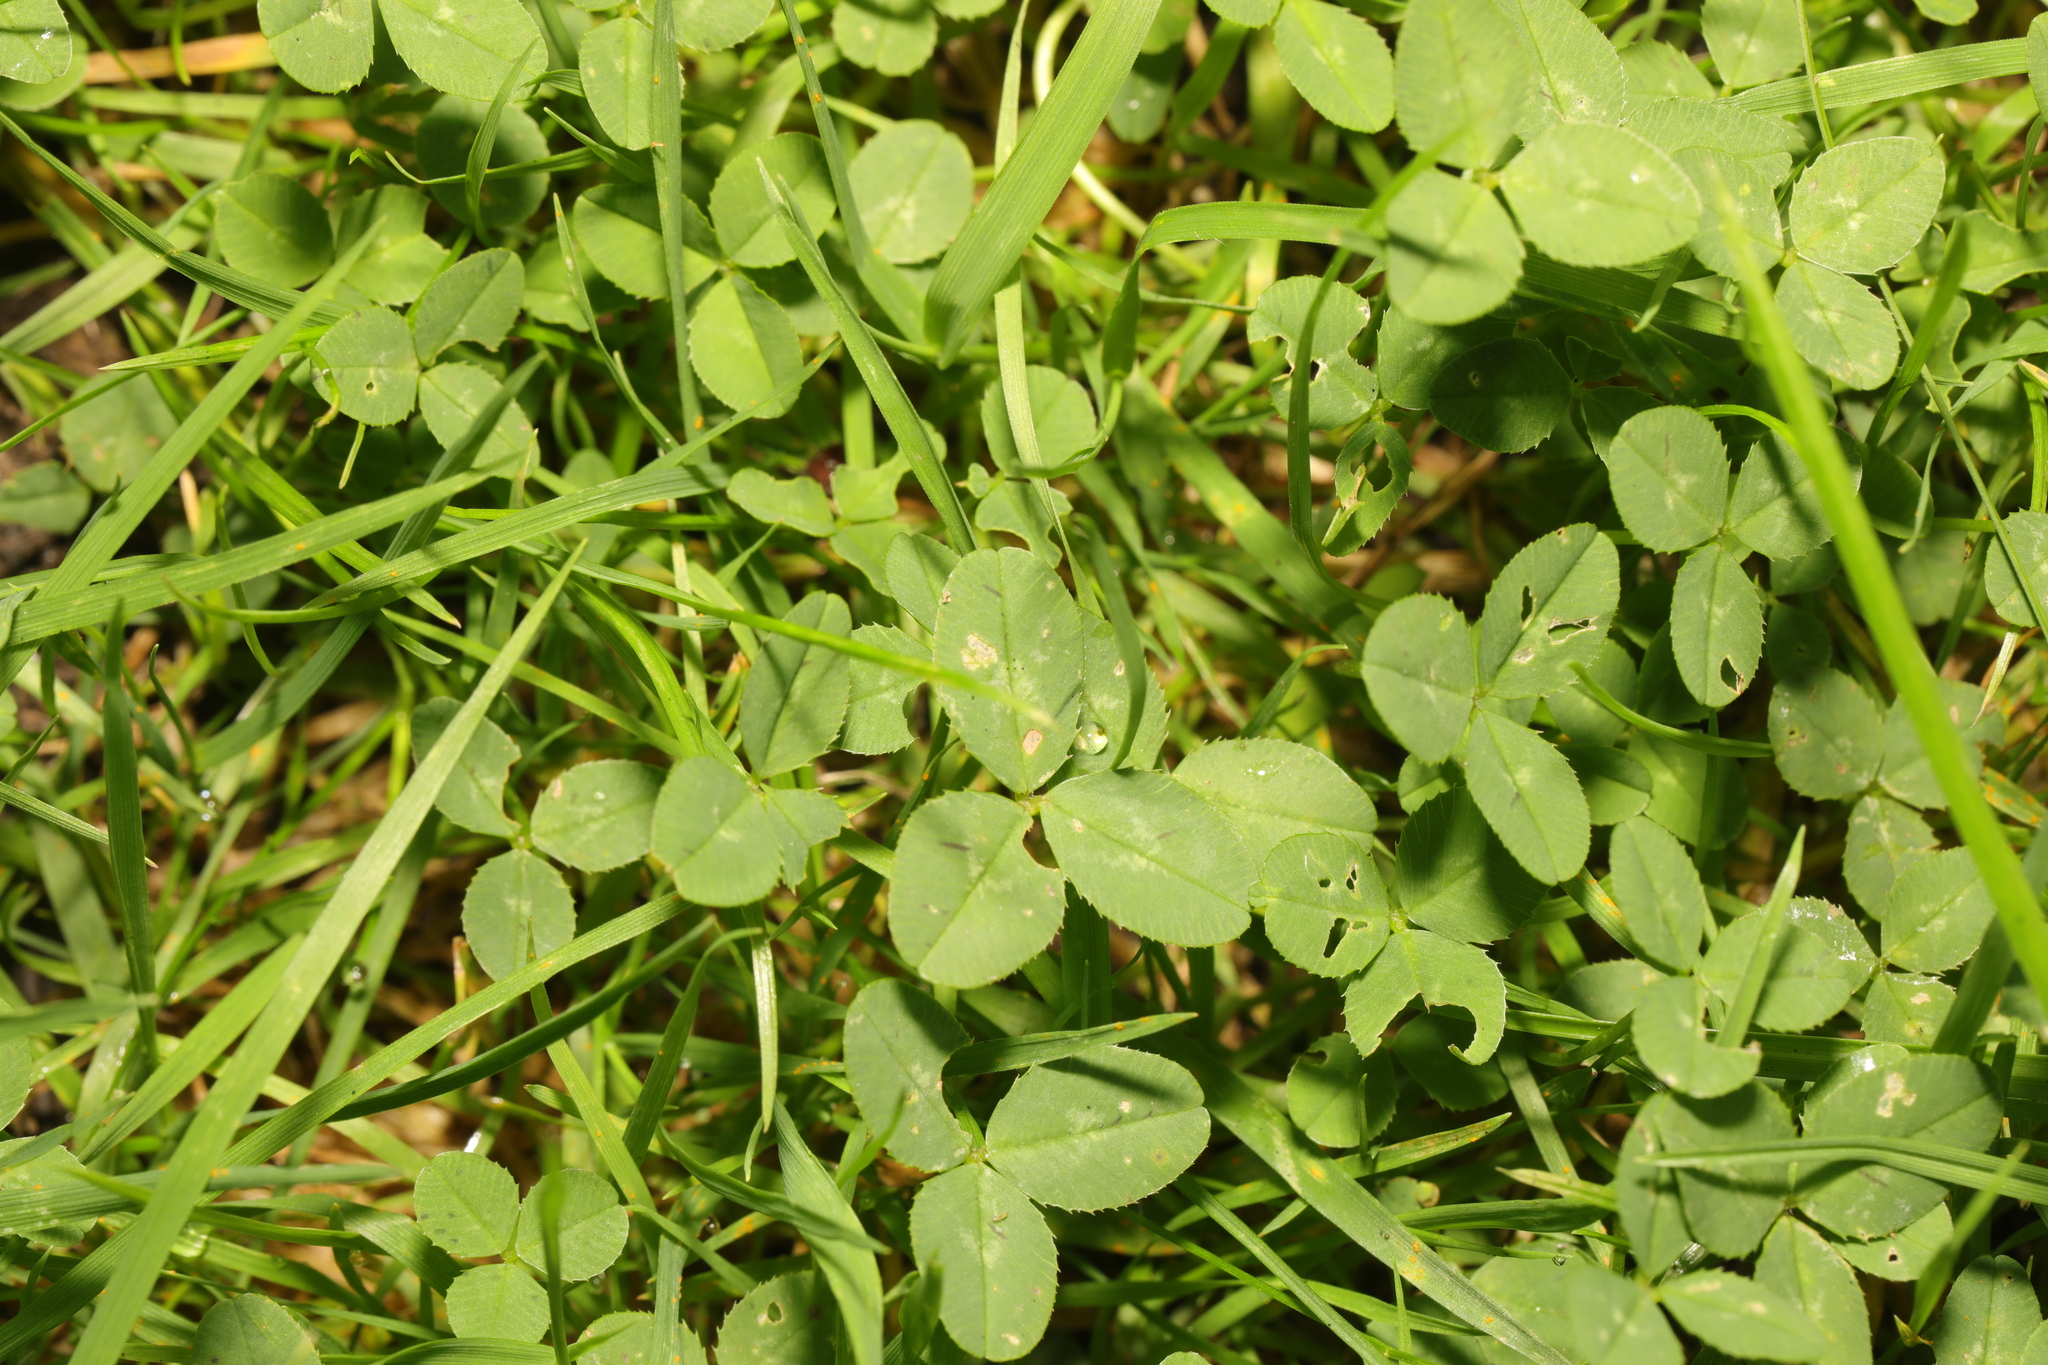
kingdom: Plantae
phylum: Tracheophyta
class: Magnoliopsida
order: Fabales
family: Fabaceae
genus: Trifolium
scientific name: Trifolium repens
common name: White clover
